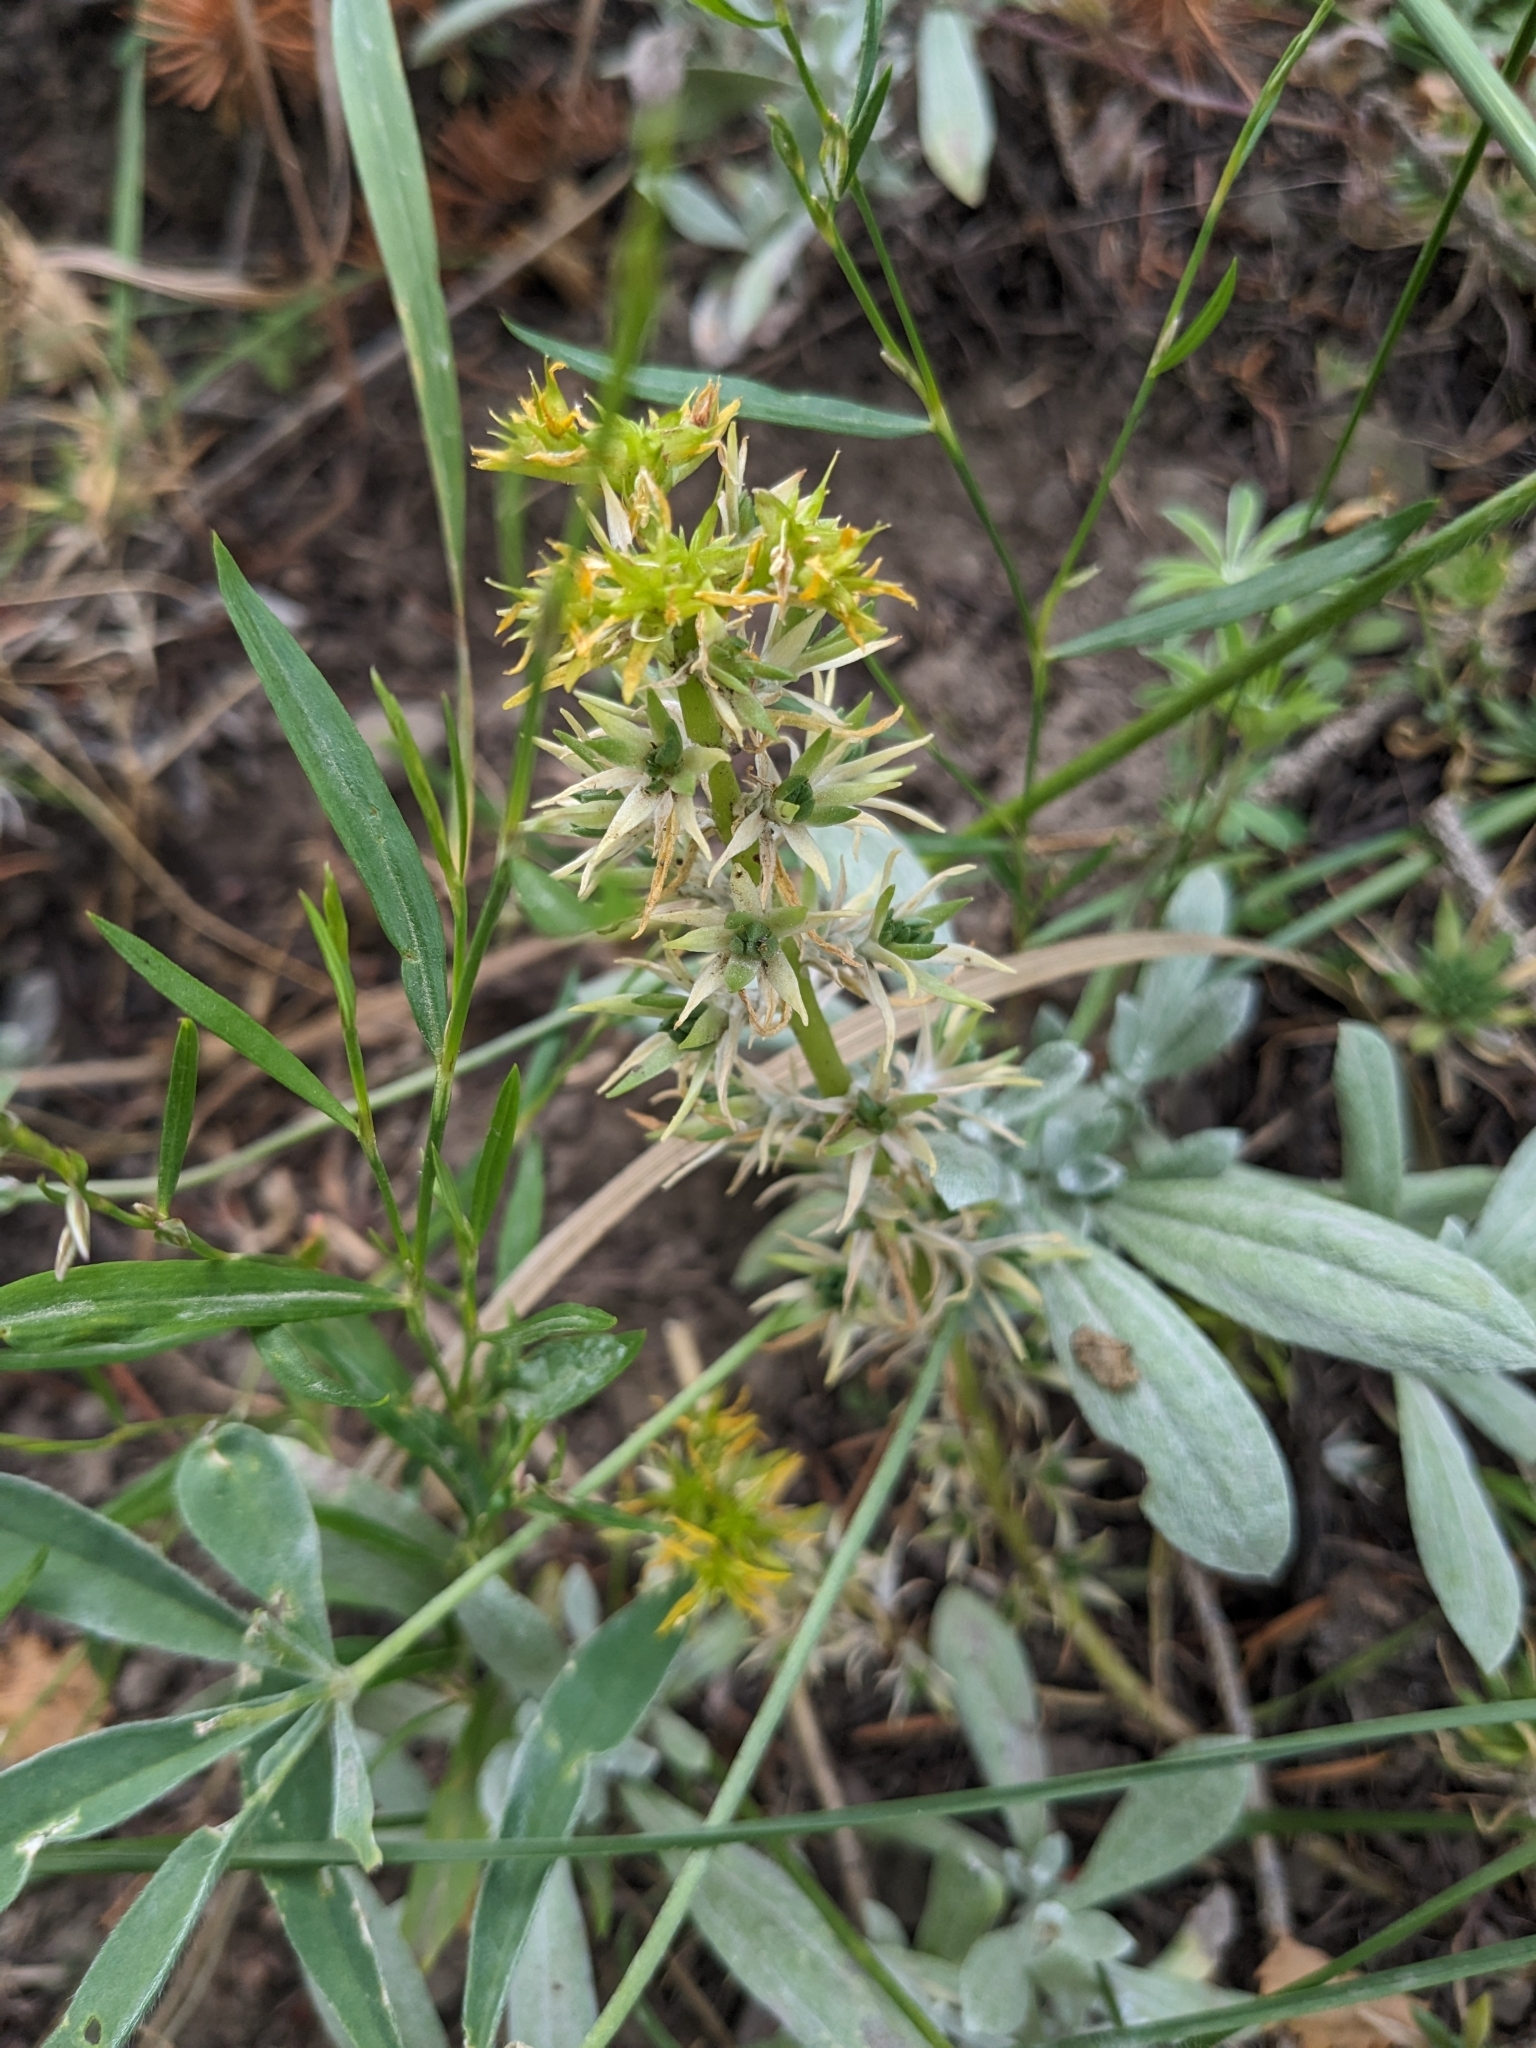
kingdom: Plantae
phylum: Tracheophyta
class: Magnoliopsida
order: Saxifragales
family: Crassulaceae
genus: Sedum
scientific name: Sedum stenopetalum
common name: Narrow-petaled stonecrop
